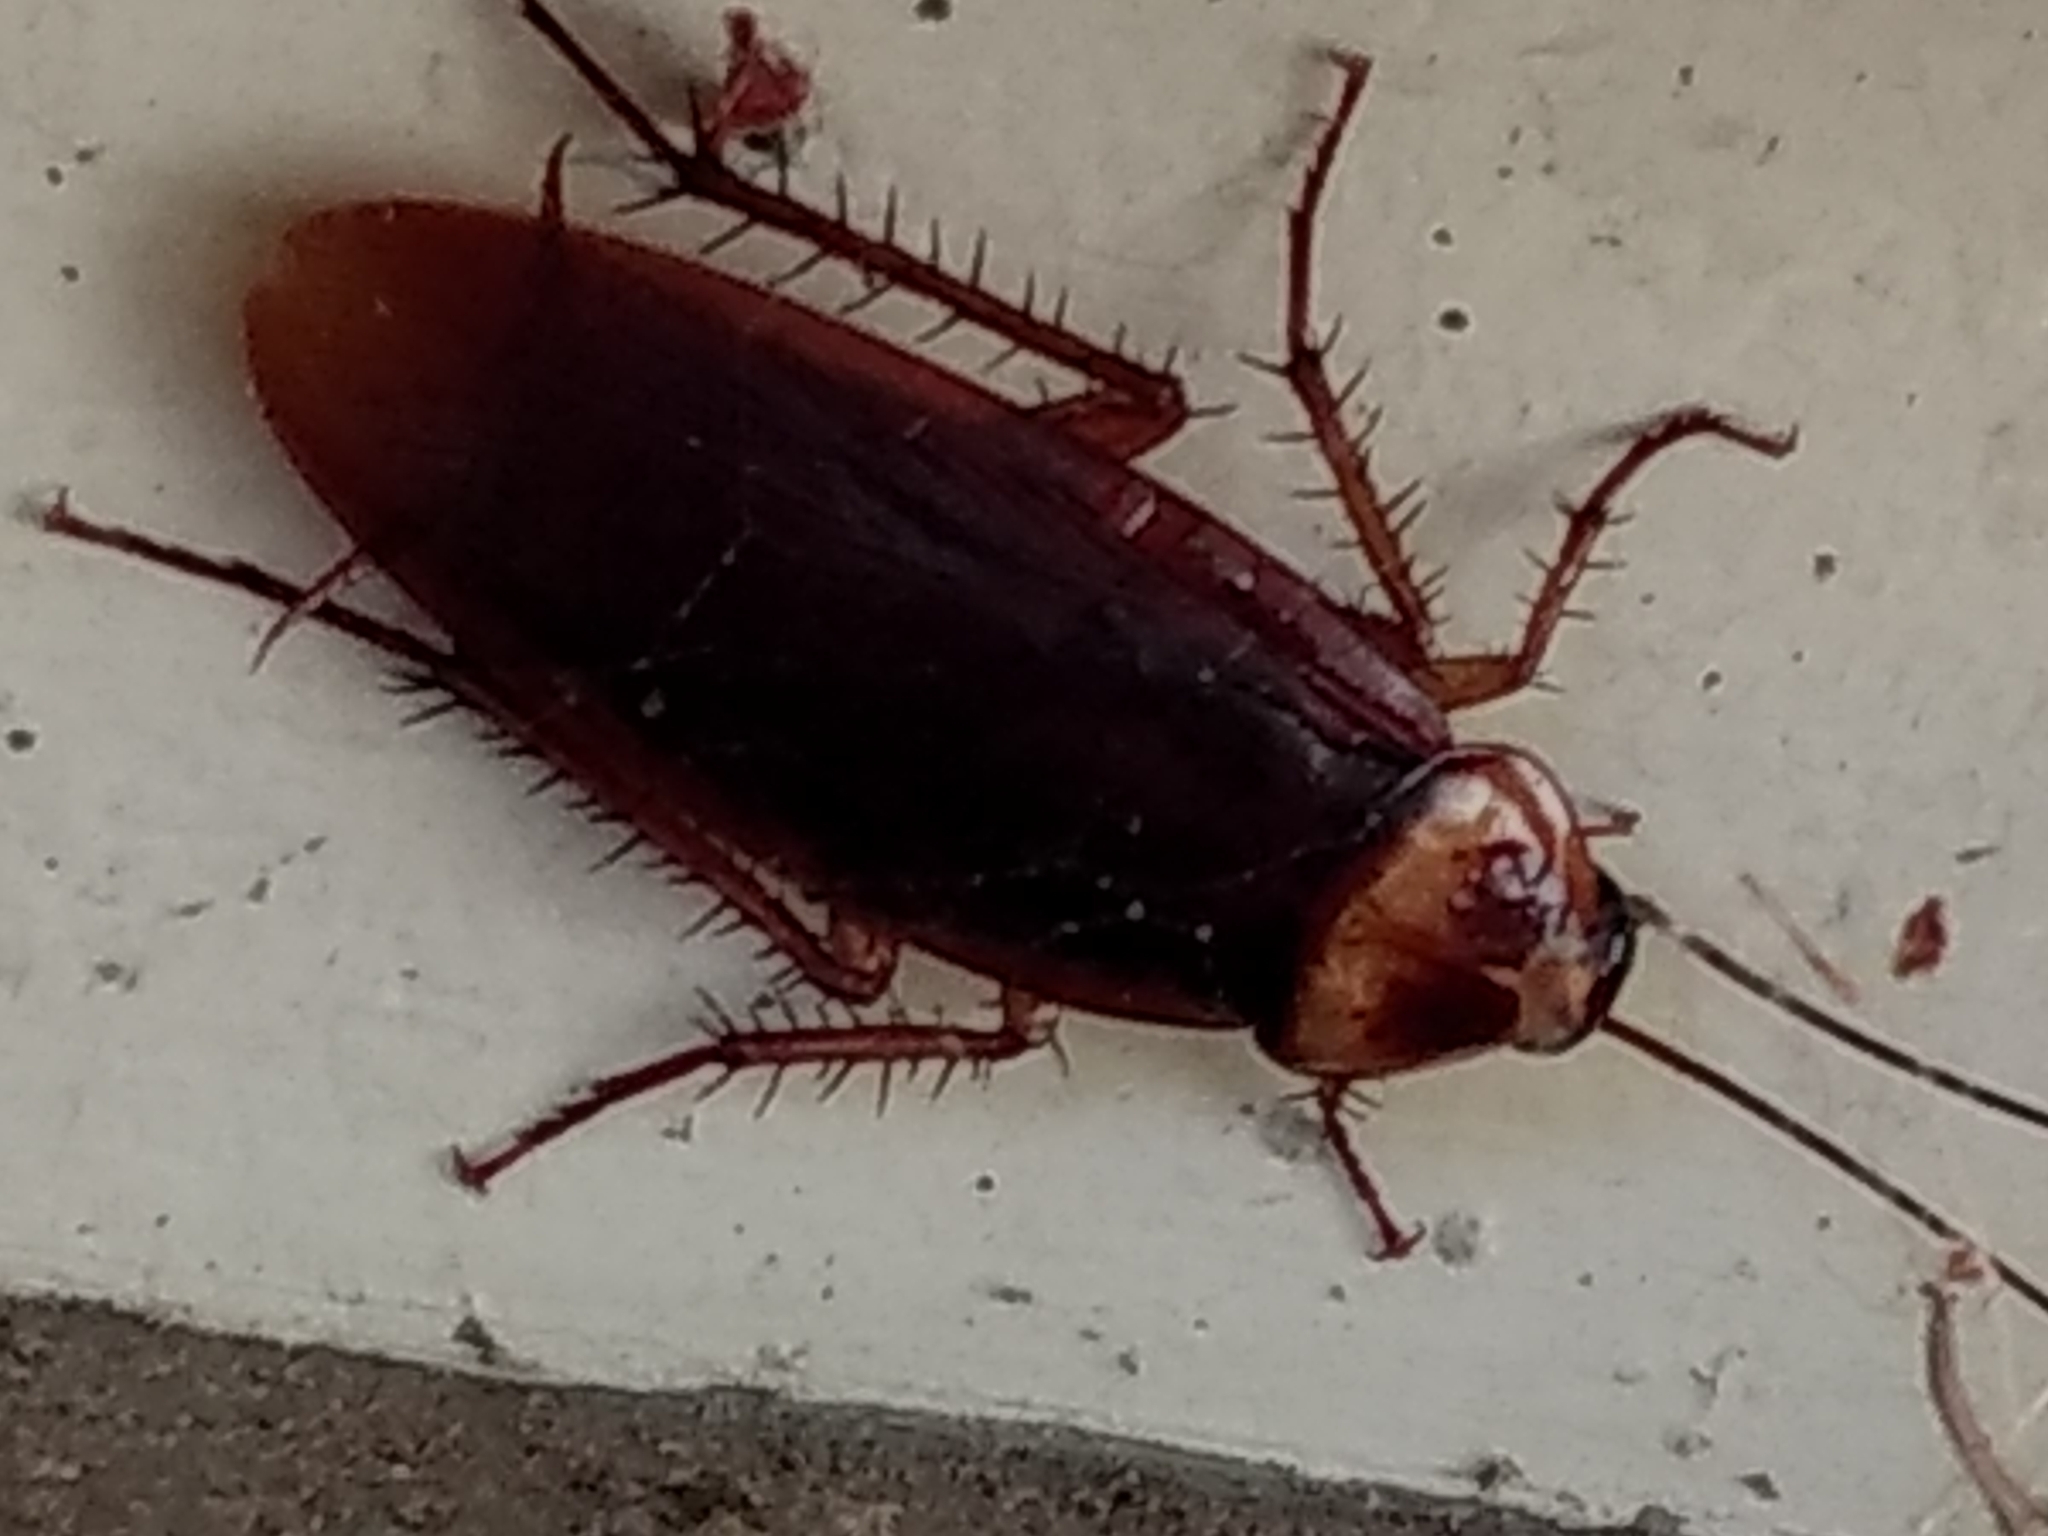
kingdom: Animalia
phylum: Arthropoda
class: Insecta
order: Blattodea
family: Blattidae
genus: Periplaneta
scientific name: Periplaneta americana
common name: American cockroach
